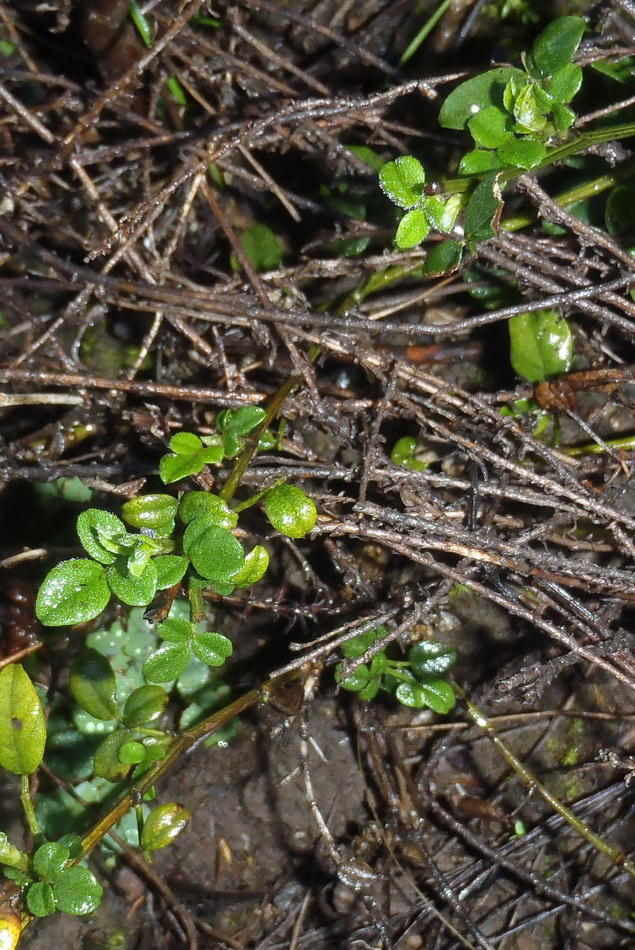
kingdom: Plantae
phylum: Tracheophyta
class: Magnoliopsida
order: Fabales
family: Fabaceae
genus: Psoralea
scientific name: Psoralea swartbergensis
